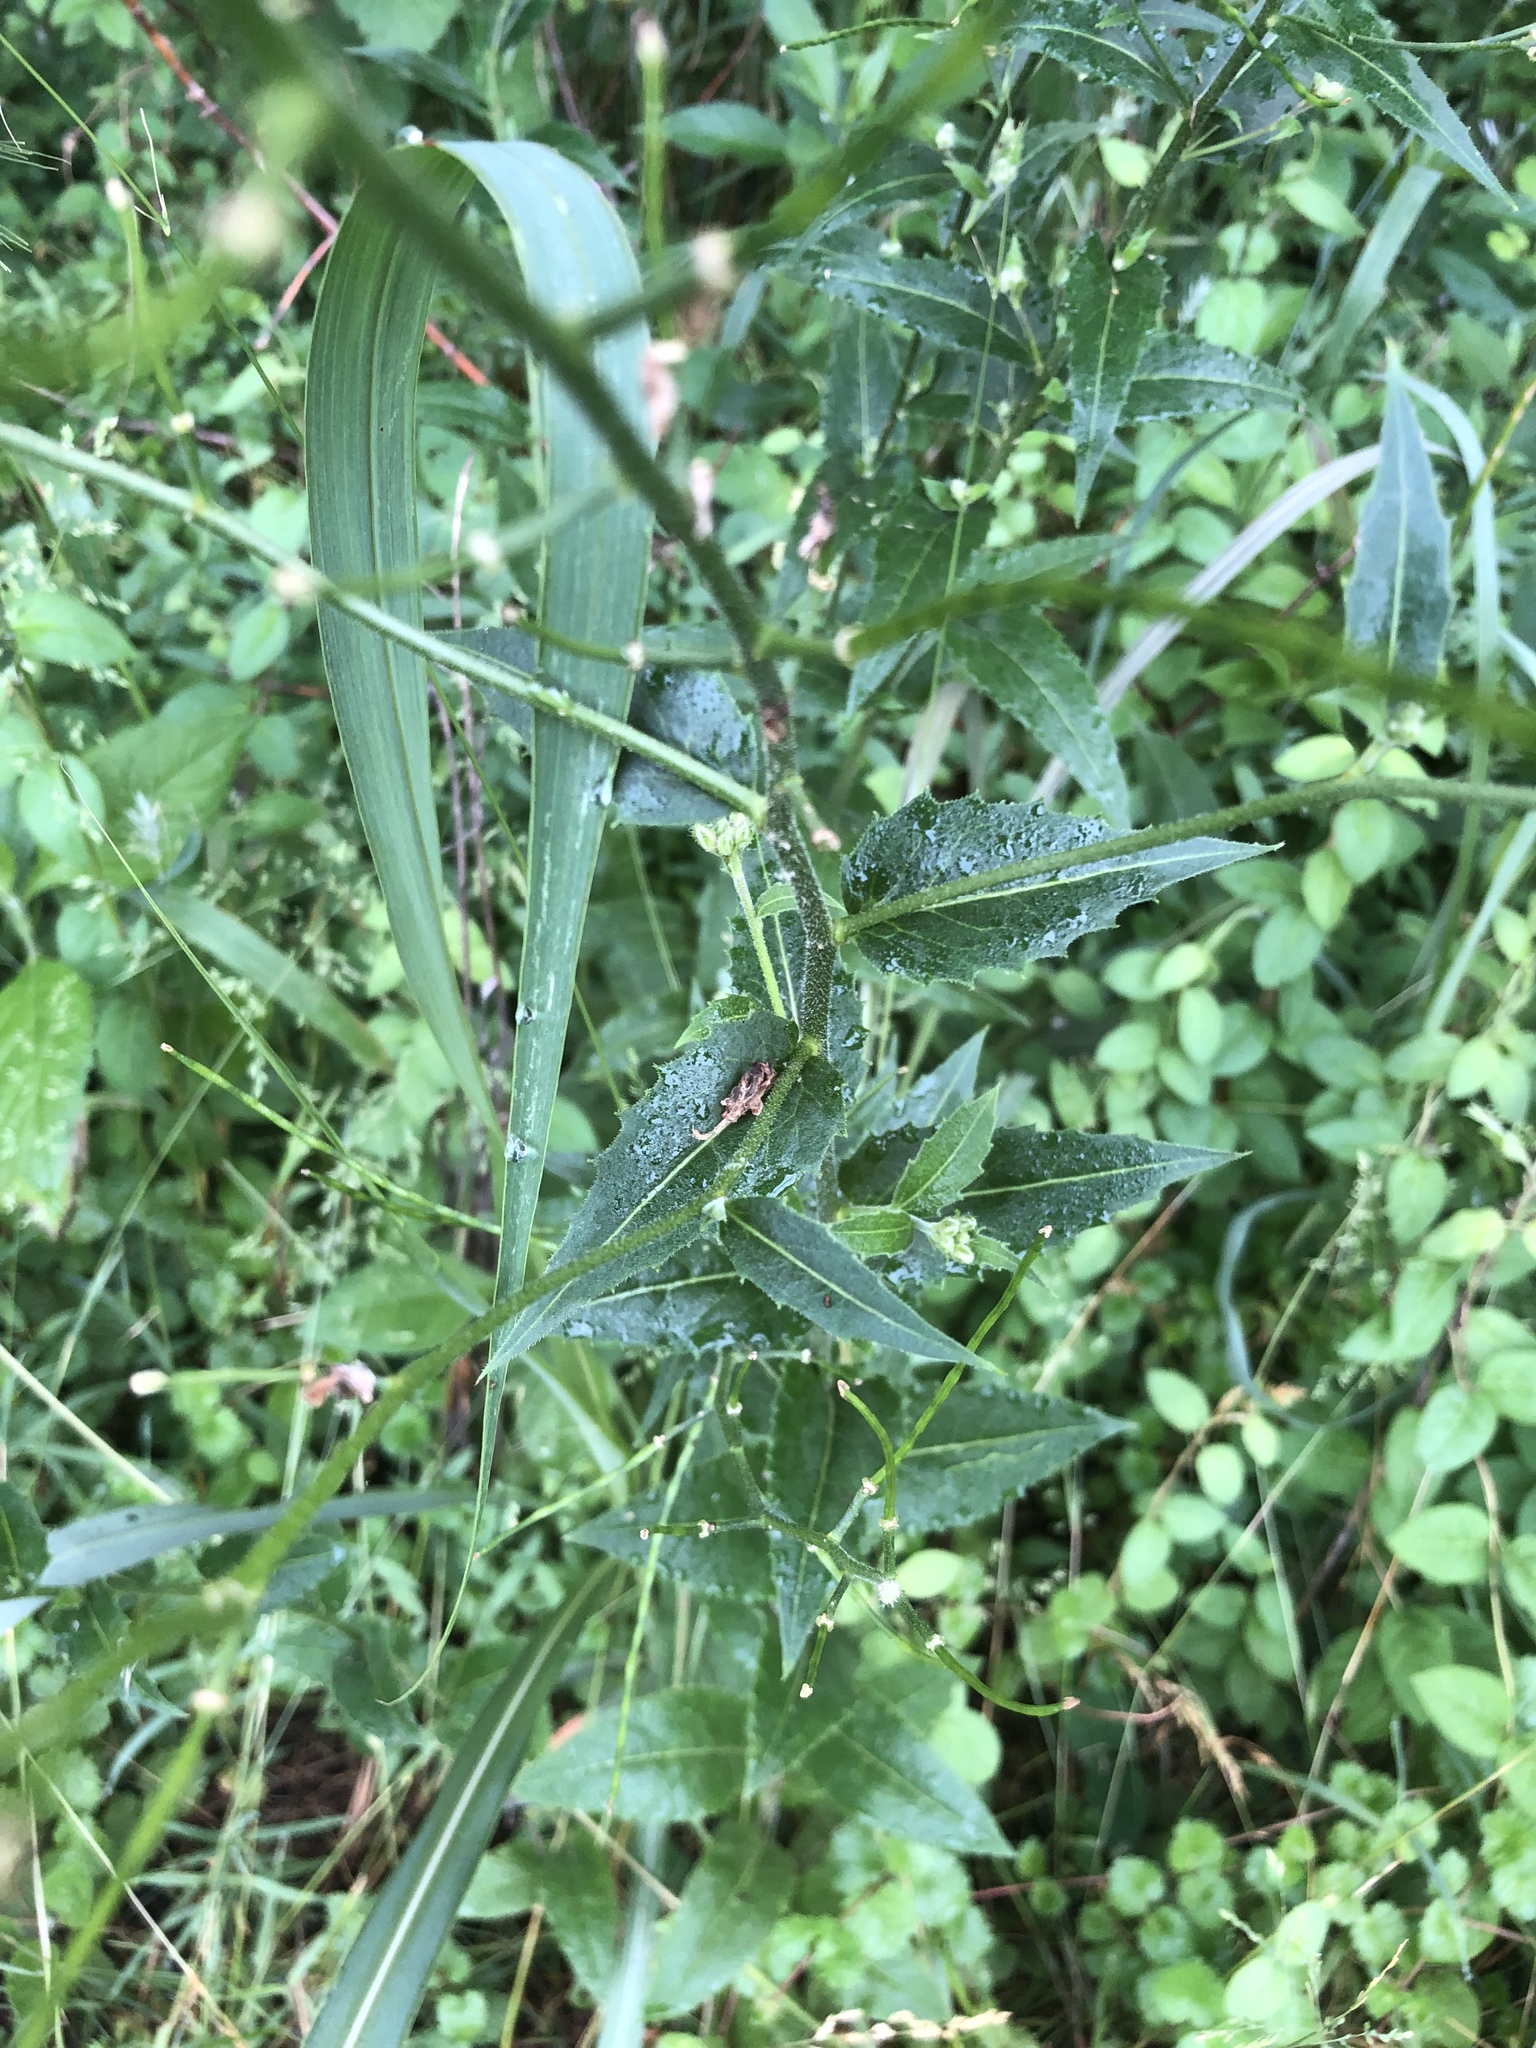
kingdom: Plantae
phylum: Tracheophyta
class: Magnoliopsida
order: Brassicales
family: Brassicaceae
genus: Hesperis
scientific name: Hesperis matronalis
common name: Dame's-violet
